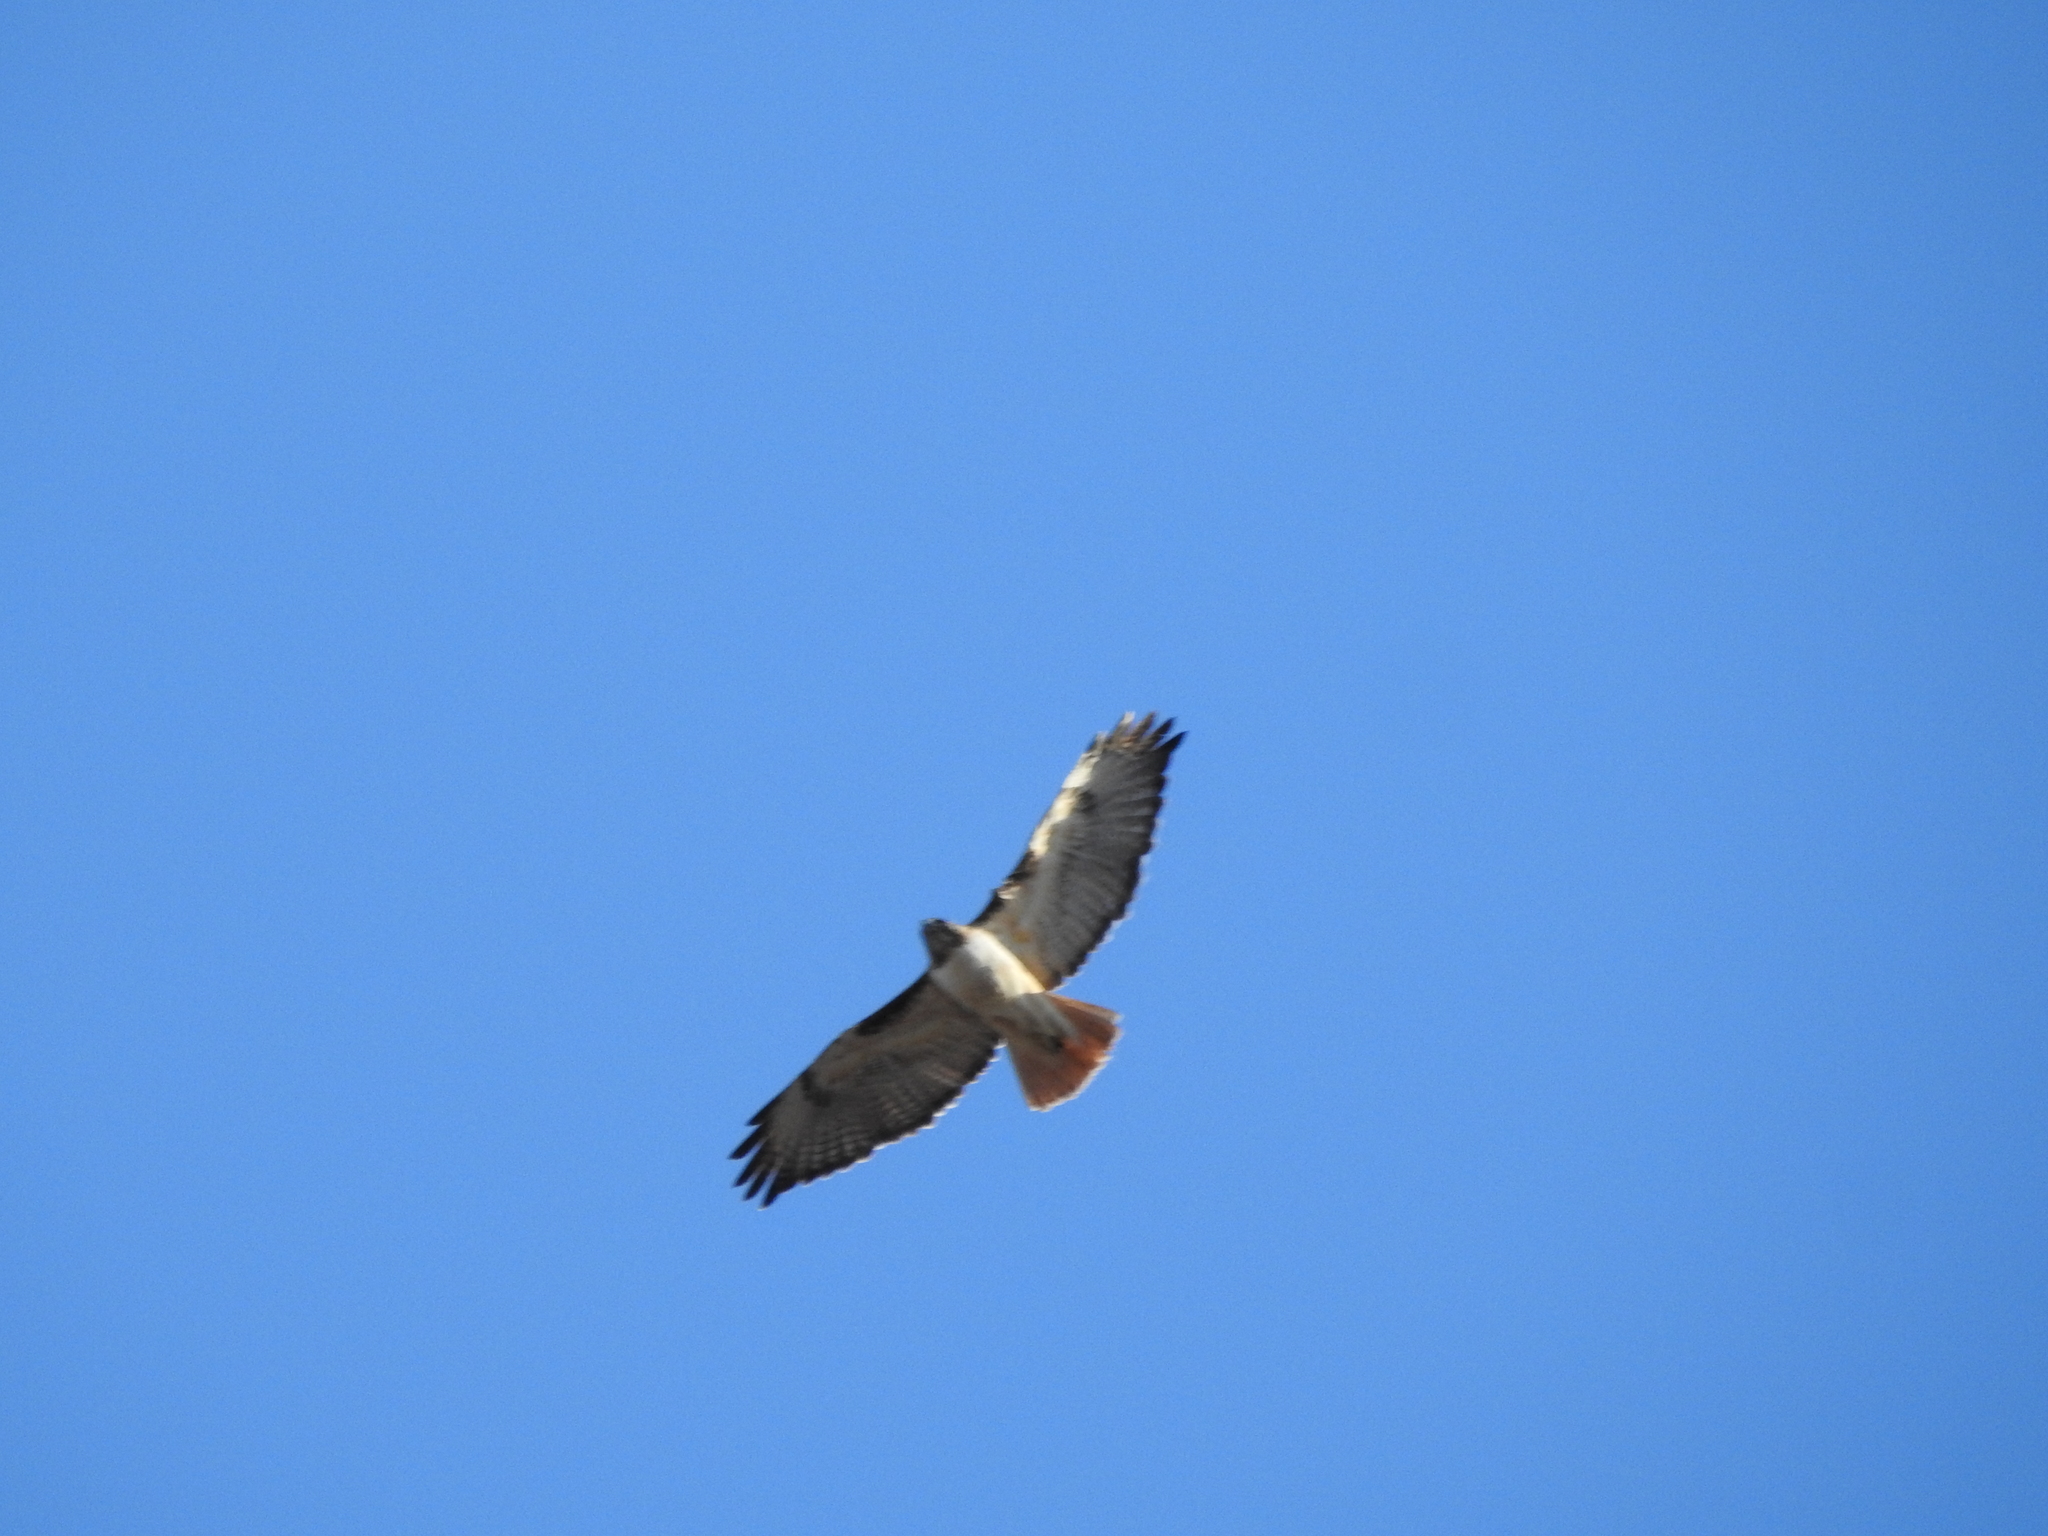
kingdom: Animalia
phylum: Chordata
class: Aves
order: Accipitriformes
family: Accipitridae
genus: Buteo
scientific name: Buteo jamaicensis
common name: Red-tailed hawk
